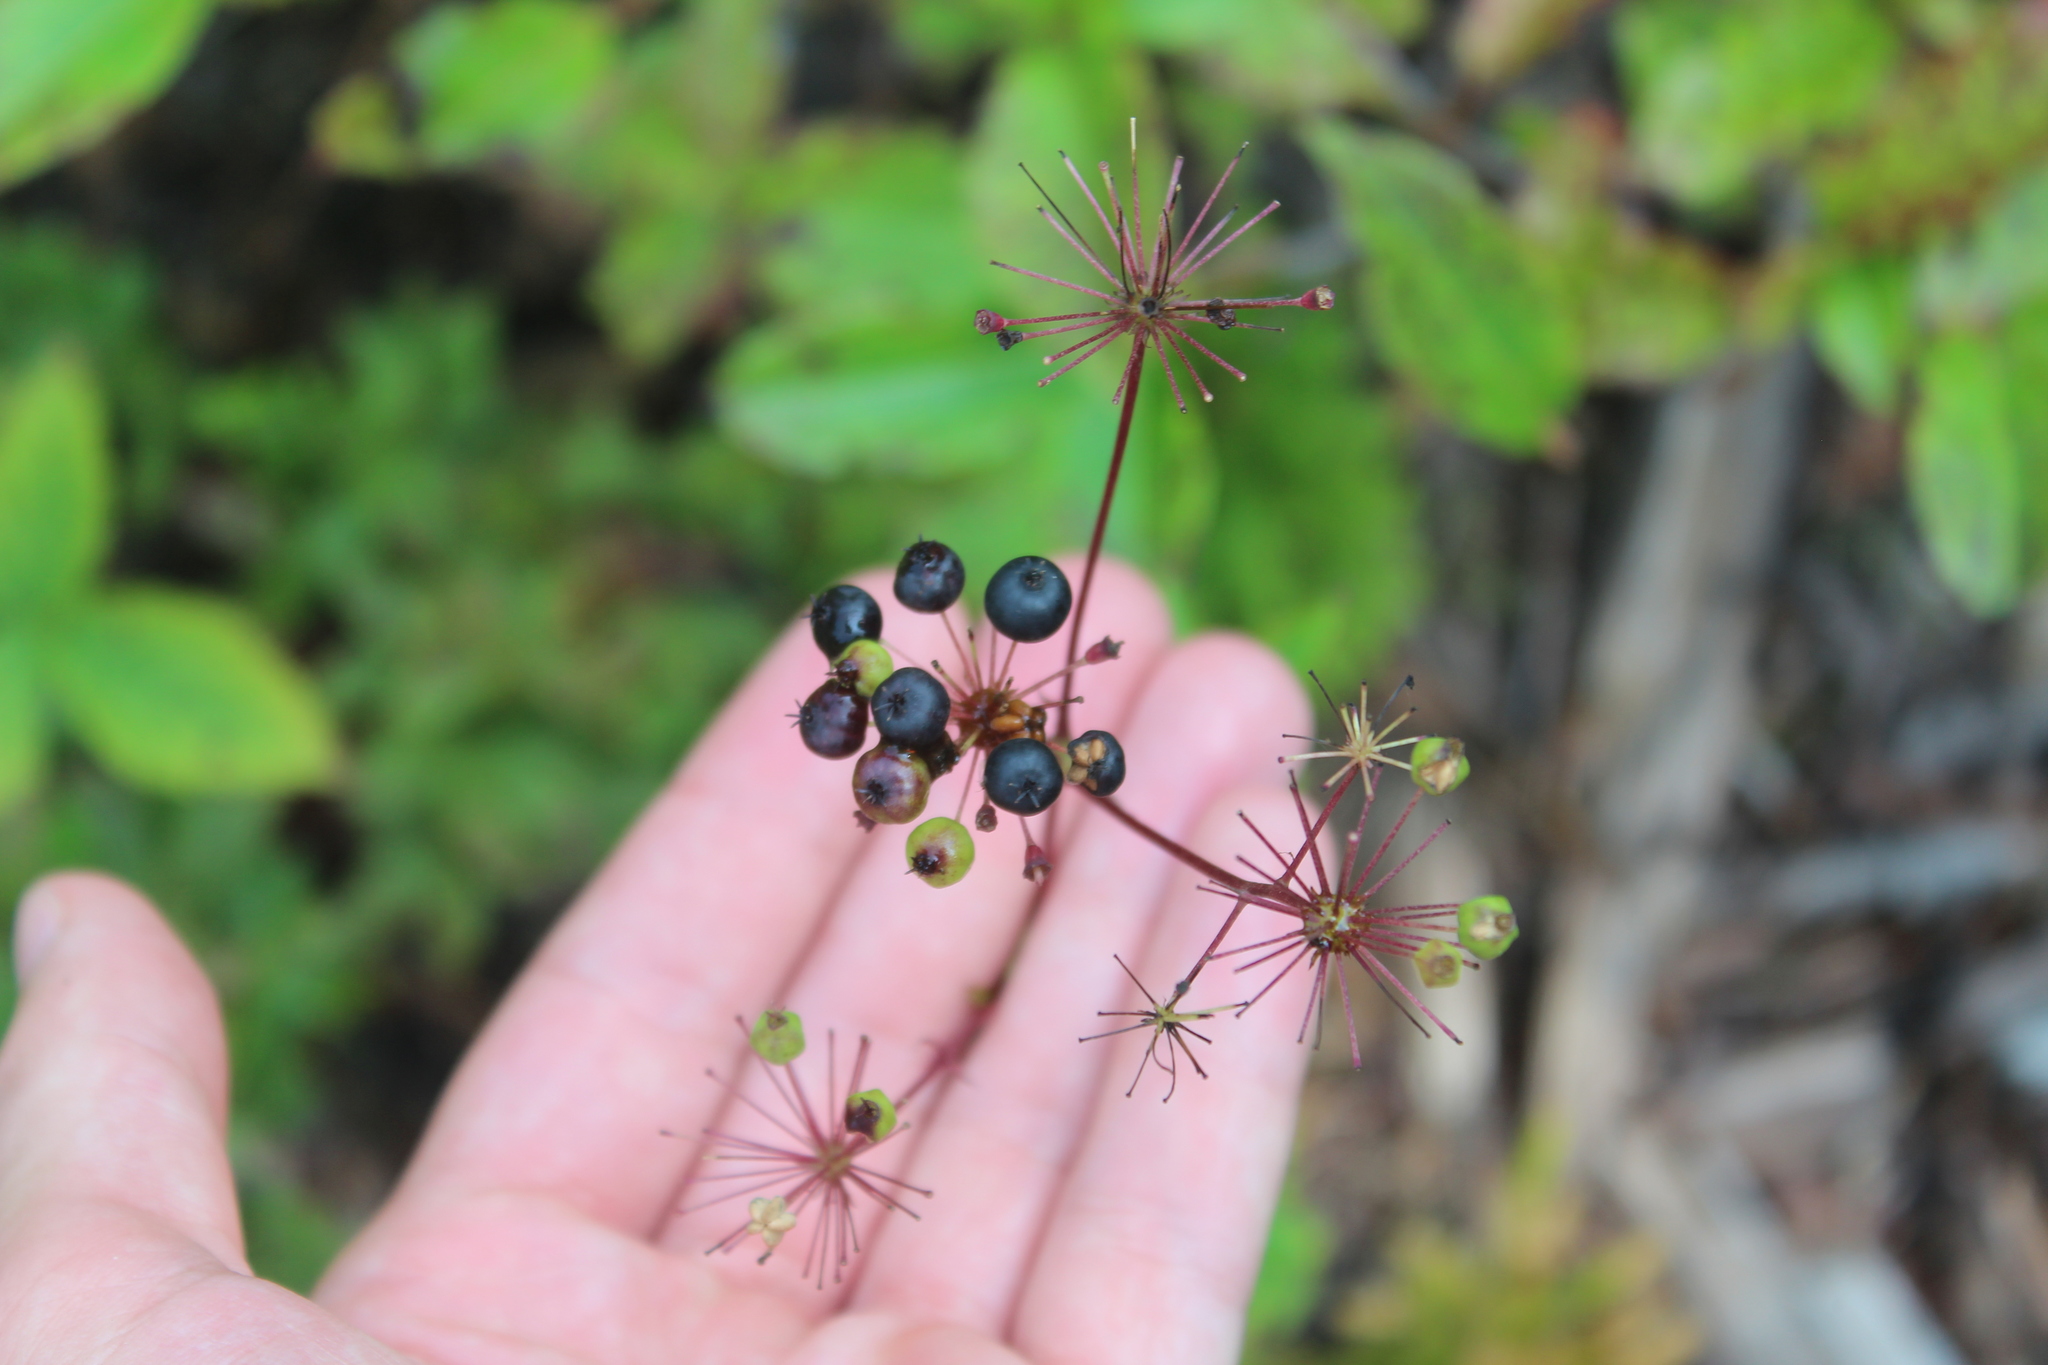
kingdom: Plantae
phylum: Tracheophyta
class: Magnoliopsida
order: Apiales
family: Araliaceae
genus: Aralia
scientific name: Aralia hispida
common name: Bristly sarsaparilla
